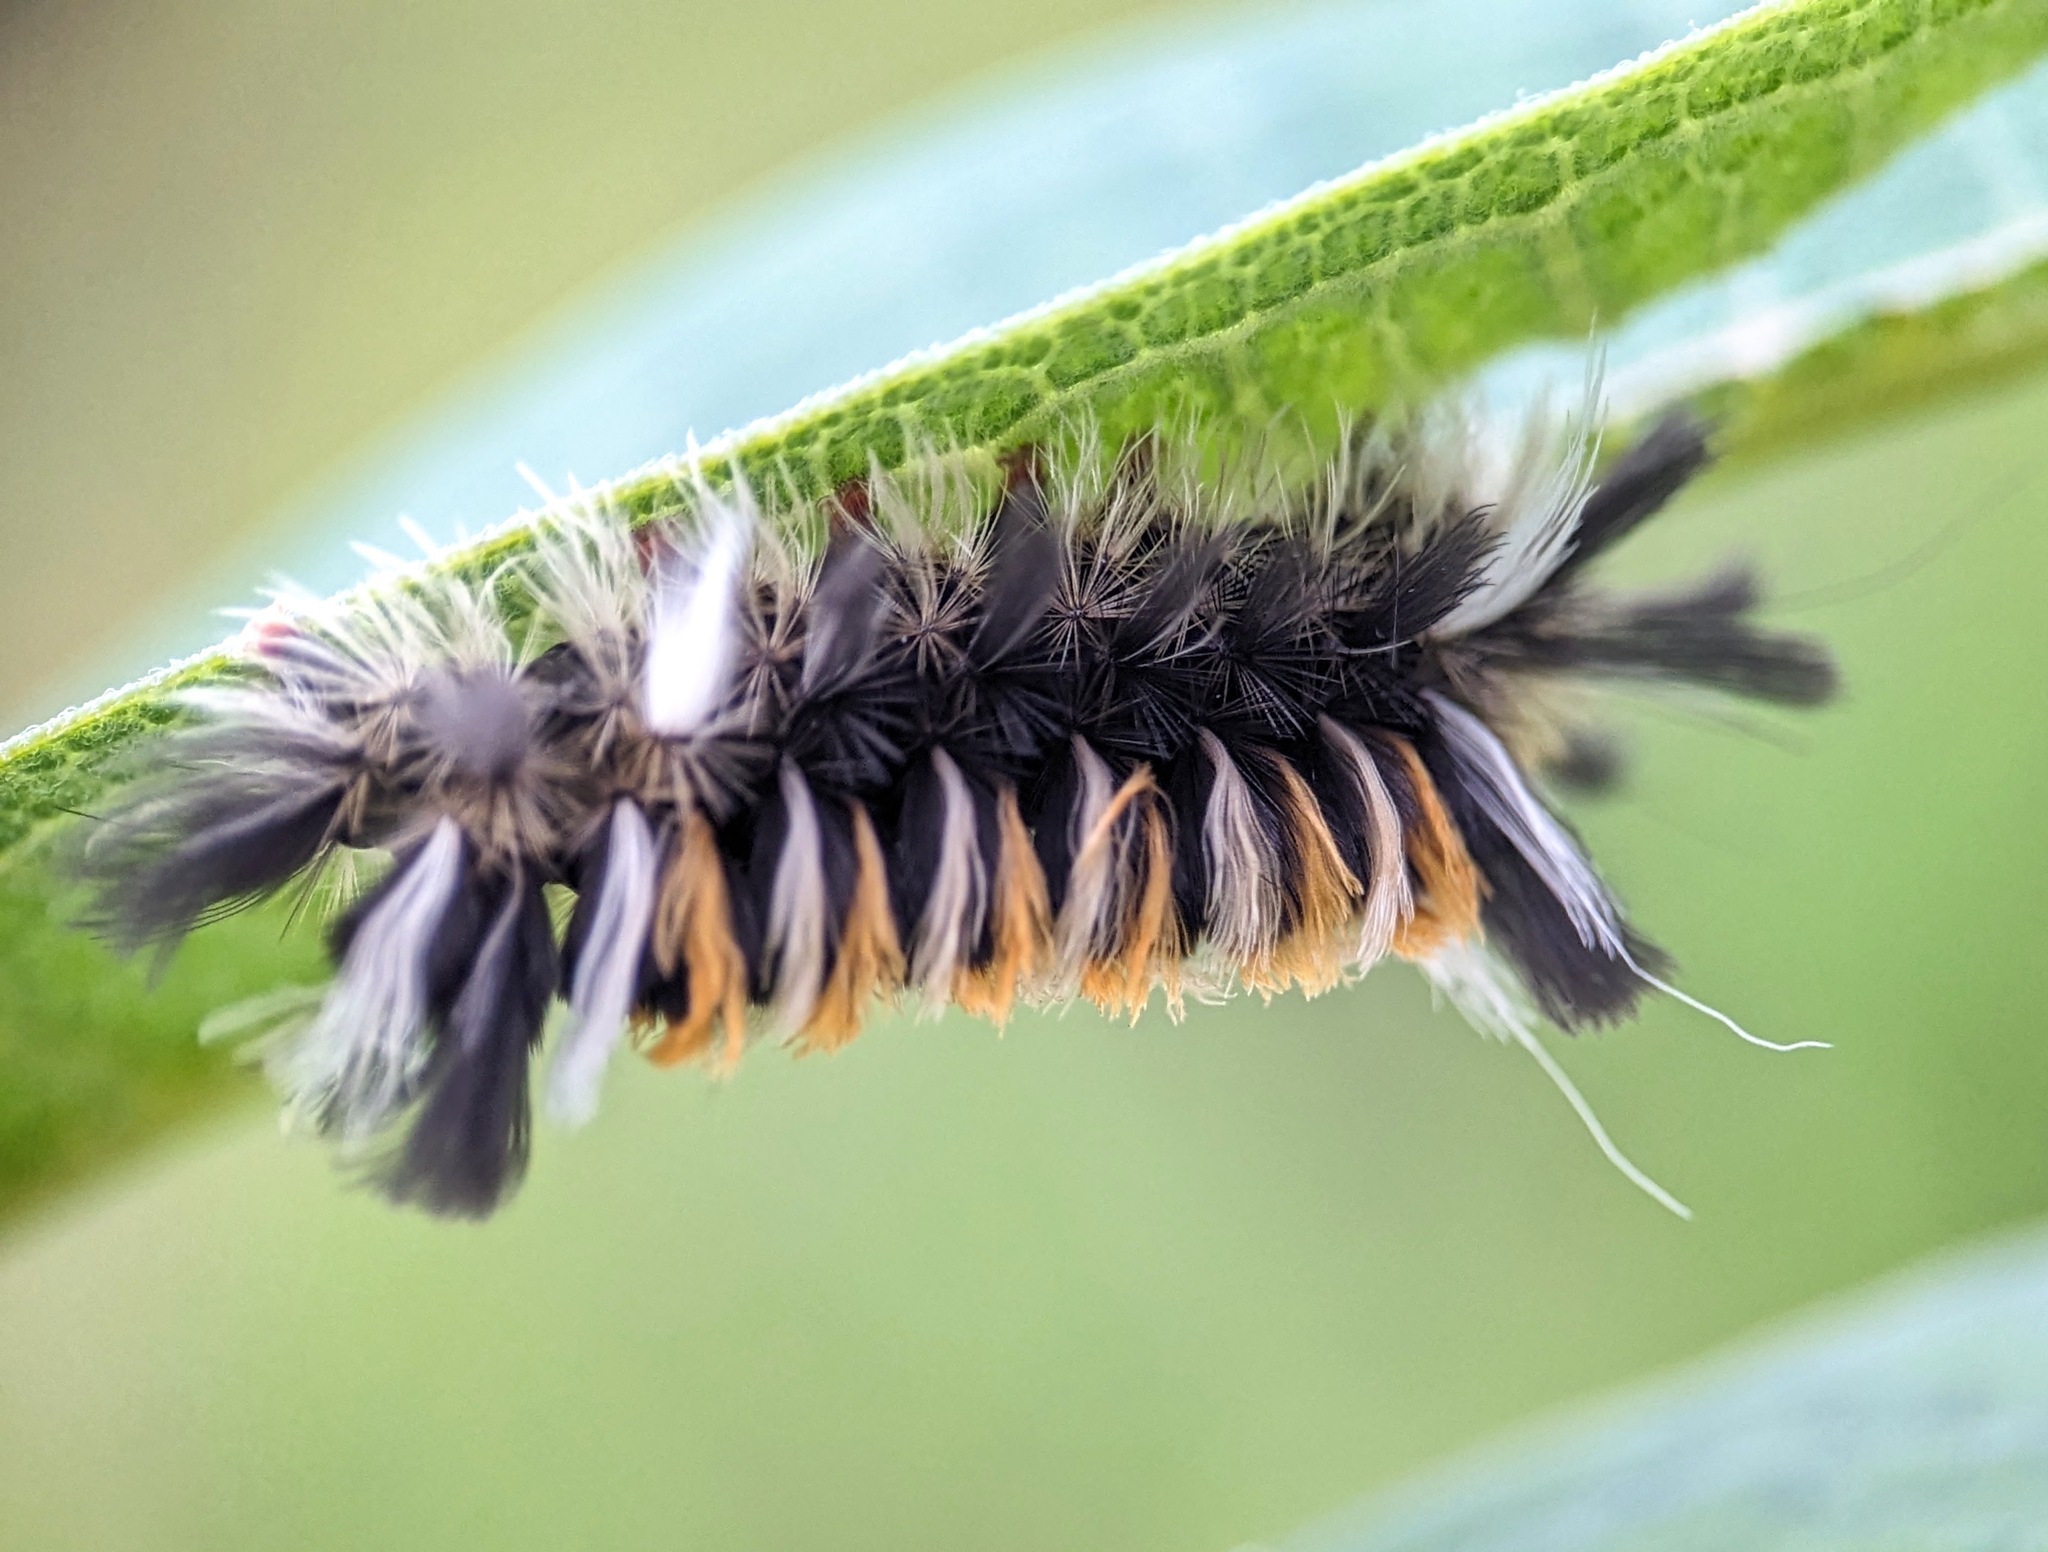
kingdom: Animalia
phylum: Arthropoda
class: Insecta
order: Lepidoptera
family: Erebidae
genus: Euchaetes
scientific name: Euchaetes egle
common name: Milkweed tussock moth
